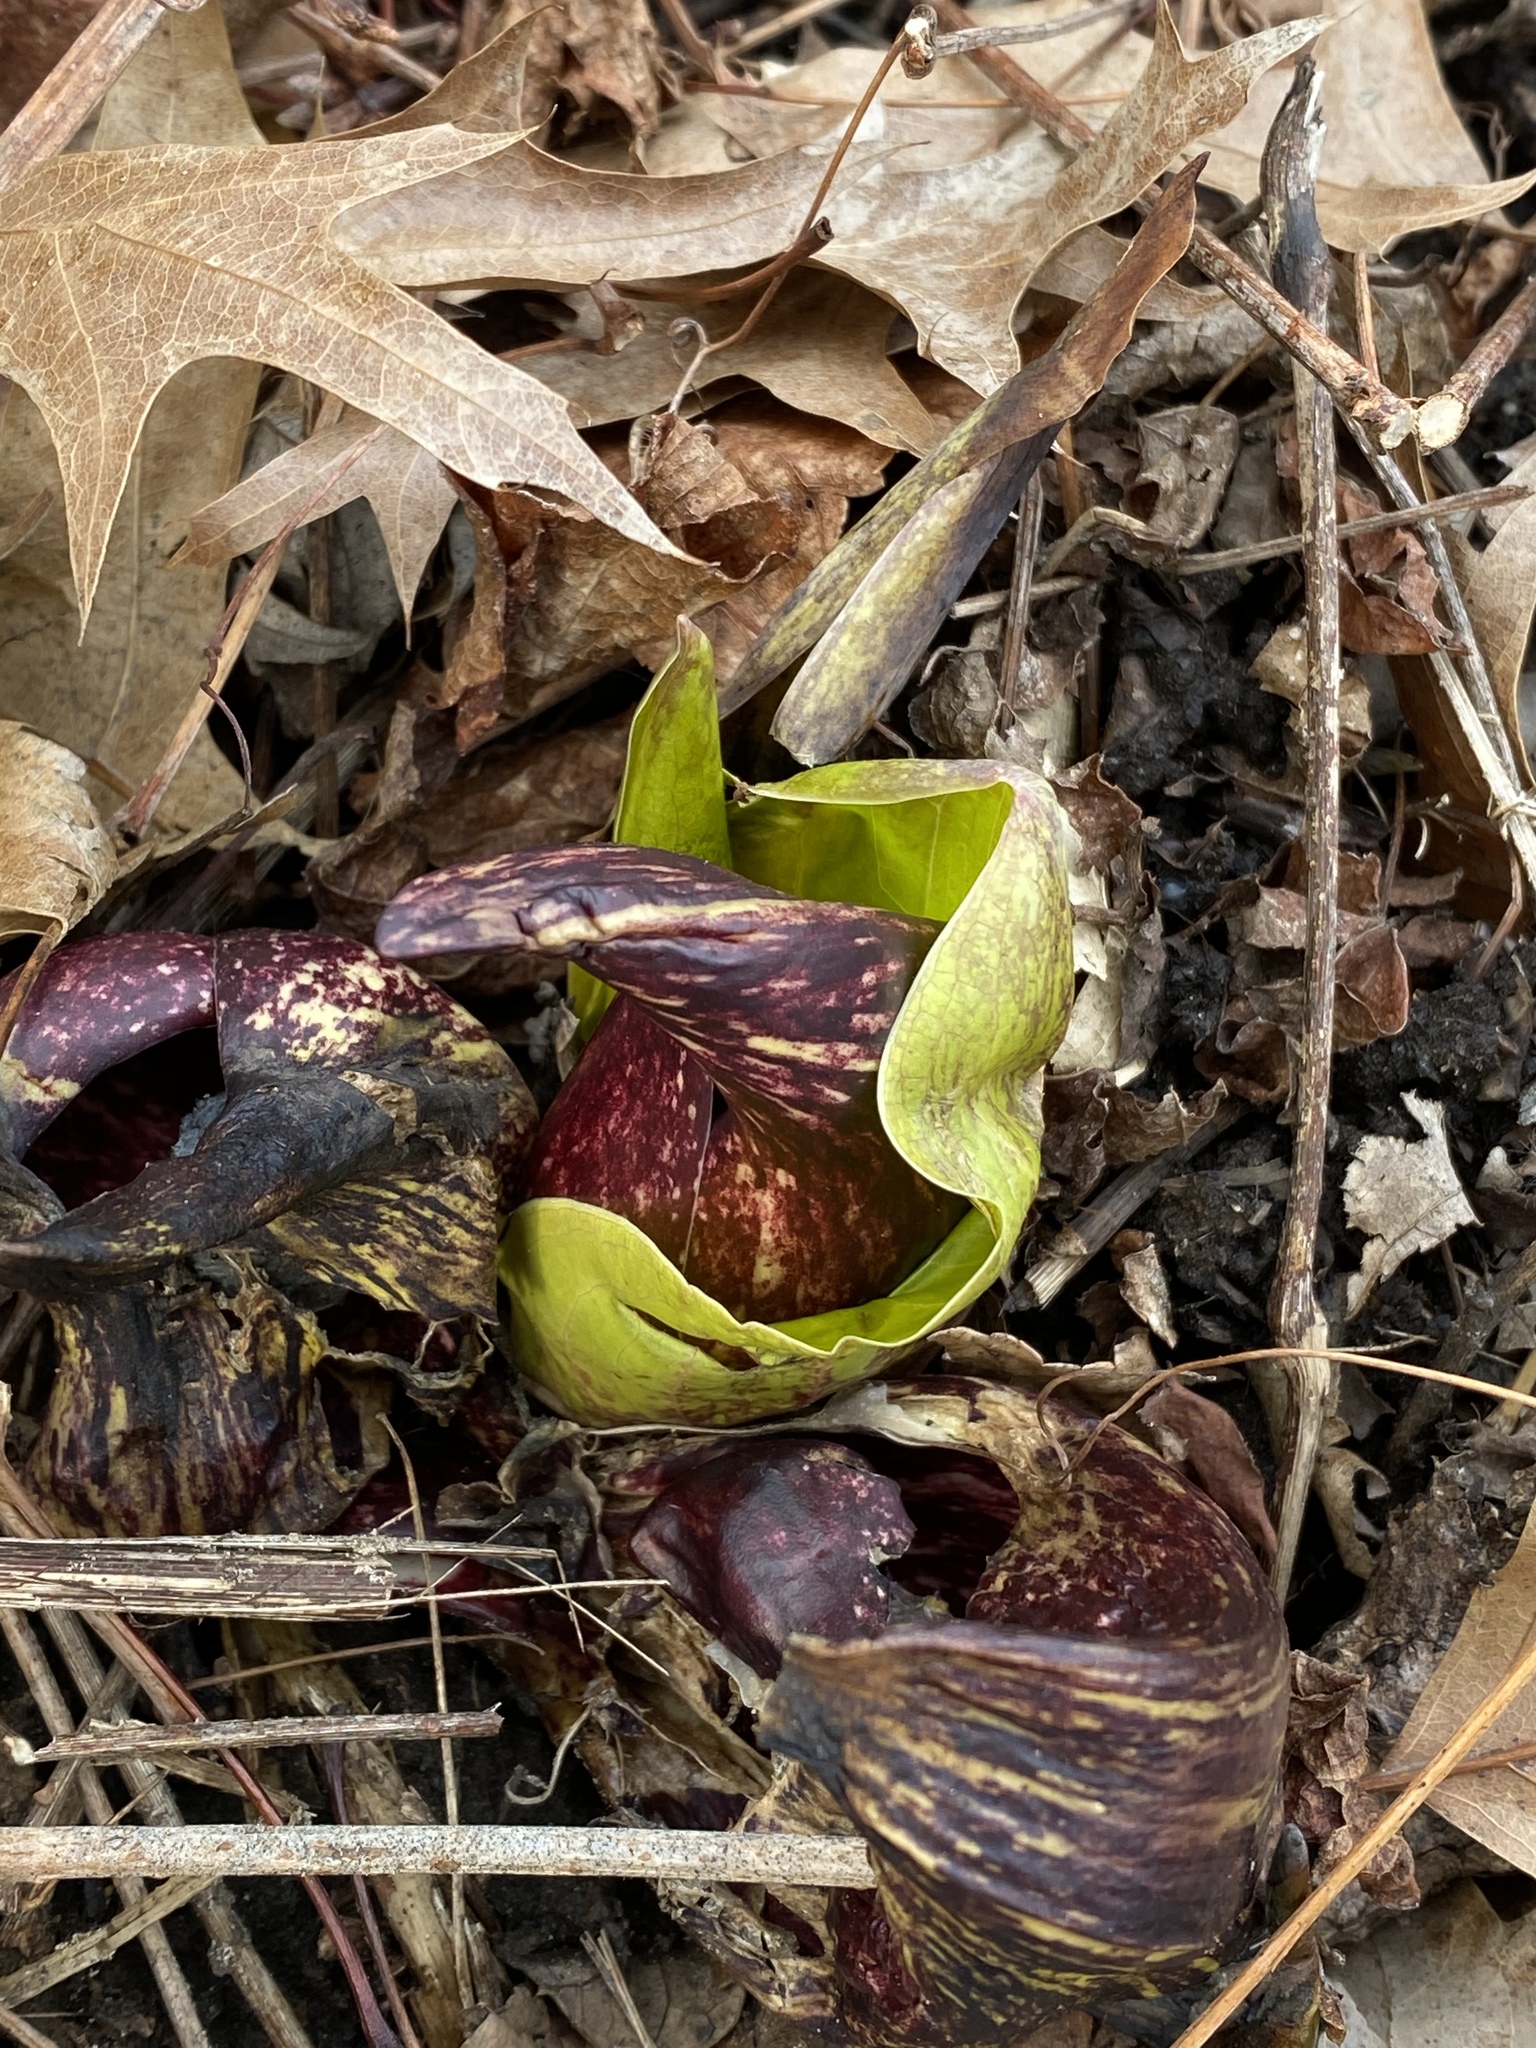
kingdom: Plantae
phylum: Tracheophyta
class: Liliopsida
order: Alismatales
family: Araceae
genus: Symplocarpus
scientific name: Symplocarpus foetidus
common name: Eastern skunk cabbage
